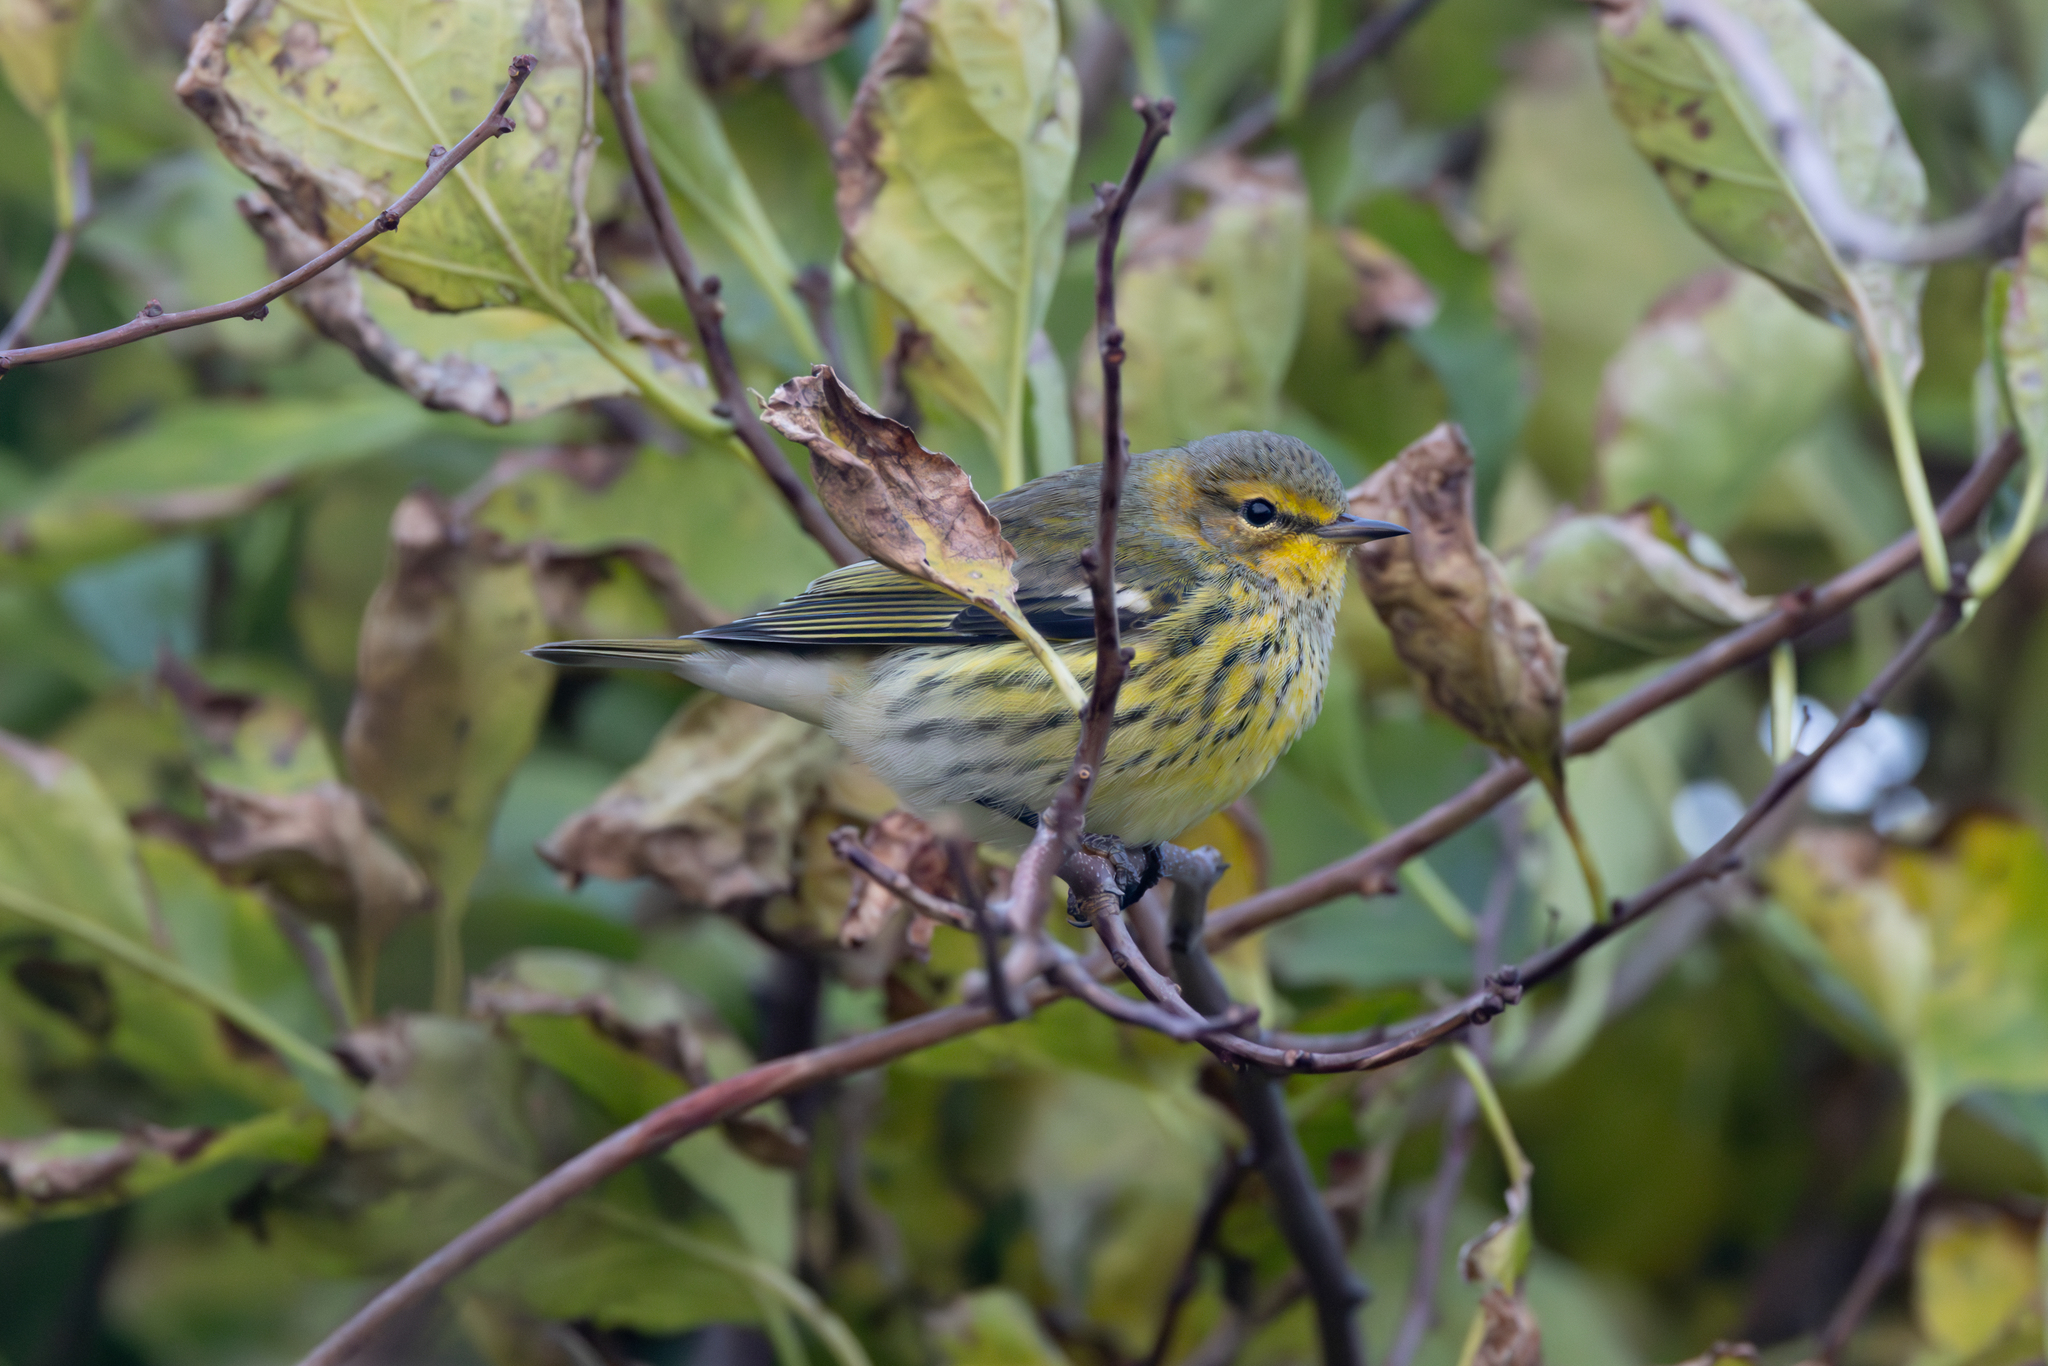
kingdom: Animalia
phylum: Chordata
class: Aves
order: Passeriformes
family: Parulidae
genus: Setophaga
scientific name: Setophaga tigrina
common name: Cape may warbler
